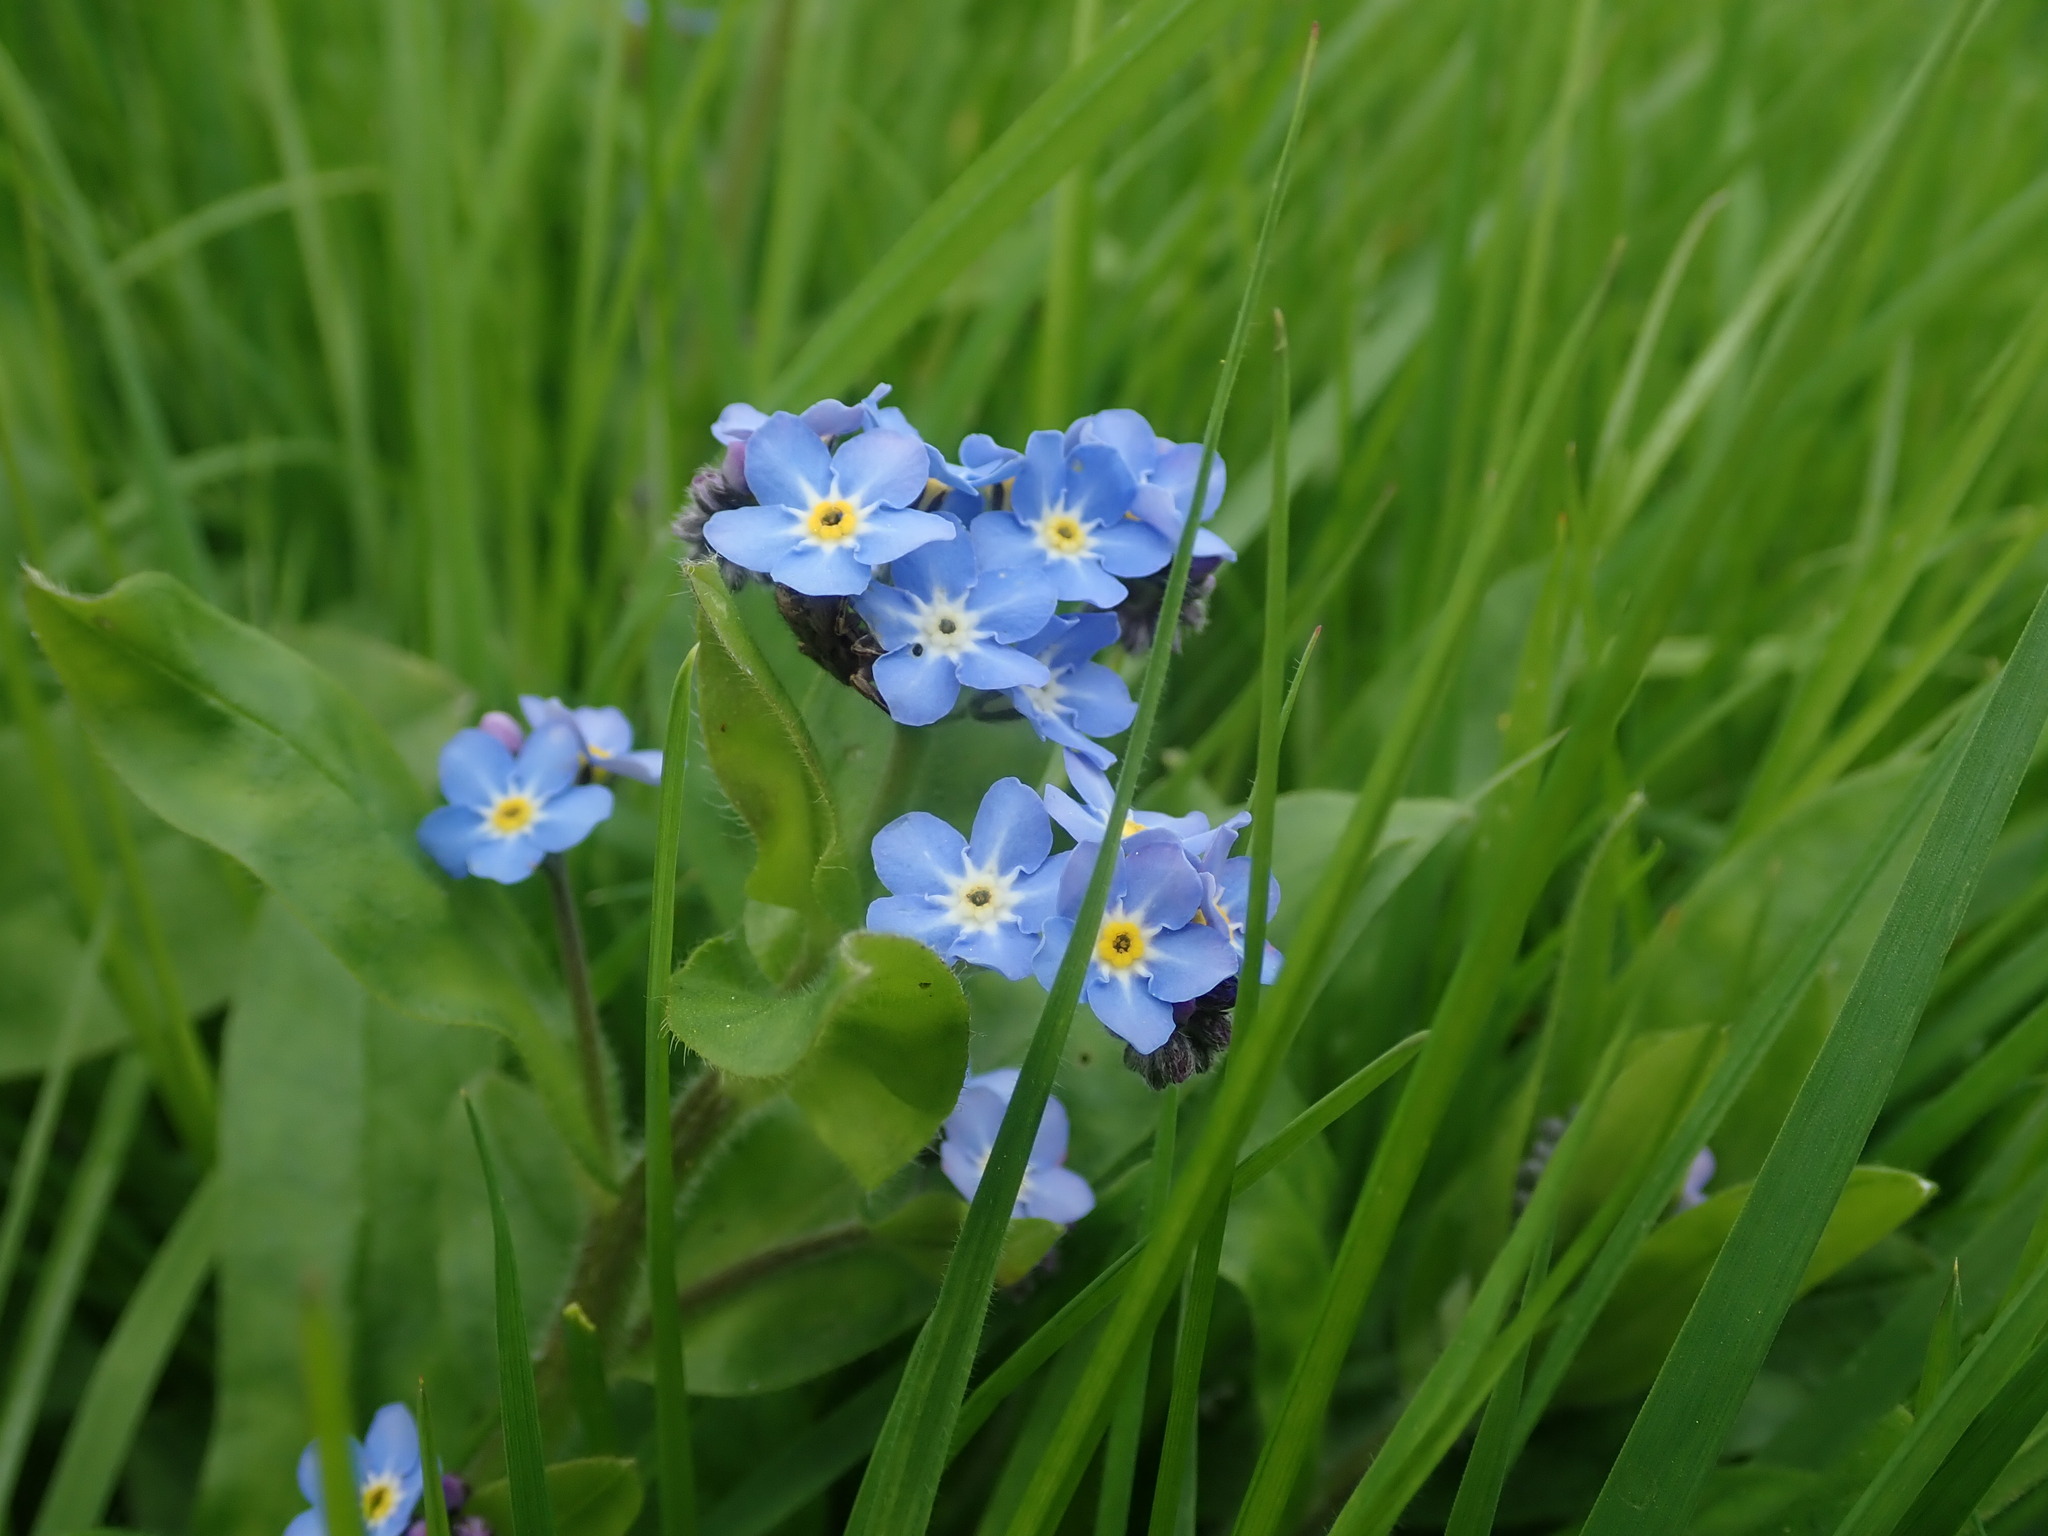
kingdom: Plantae
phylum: Tracheophyta
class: Magnoliopsida
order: Boraginales
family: Boraginaceae
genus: Myosotis
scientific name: Myosotis sylvatica
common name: Wood forget-me-not
